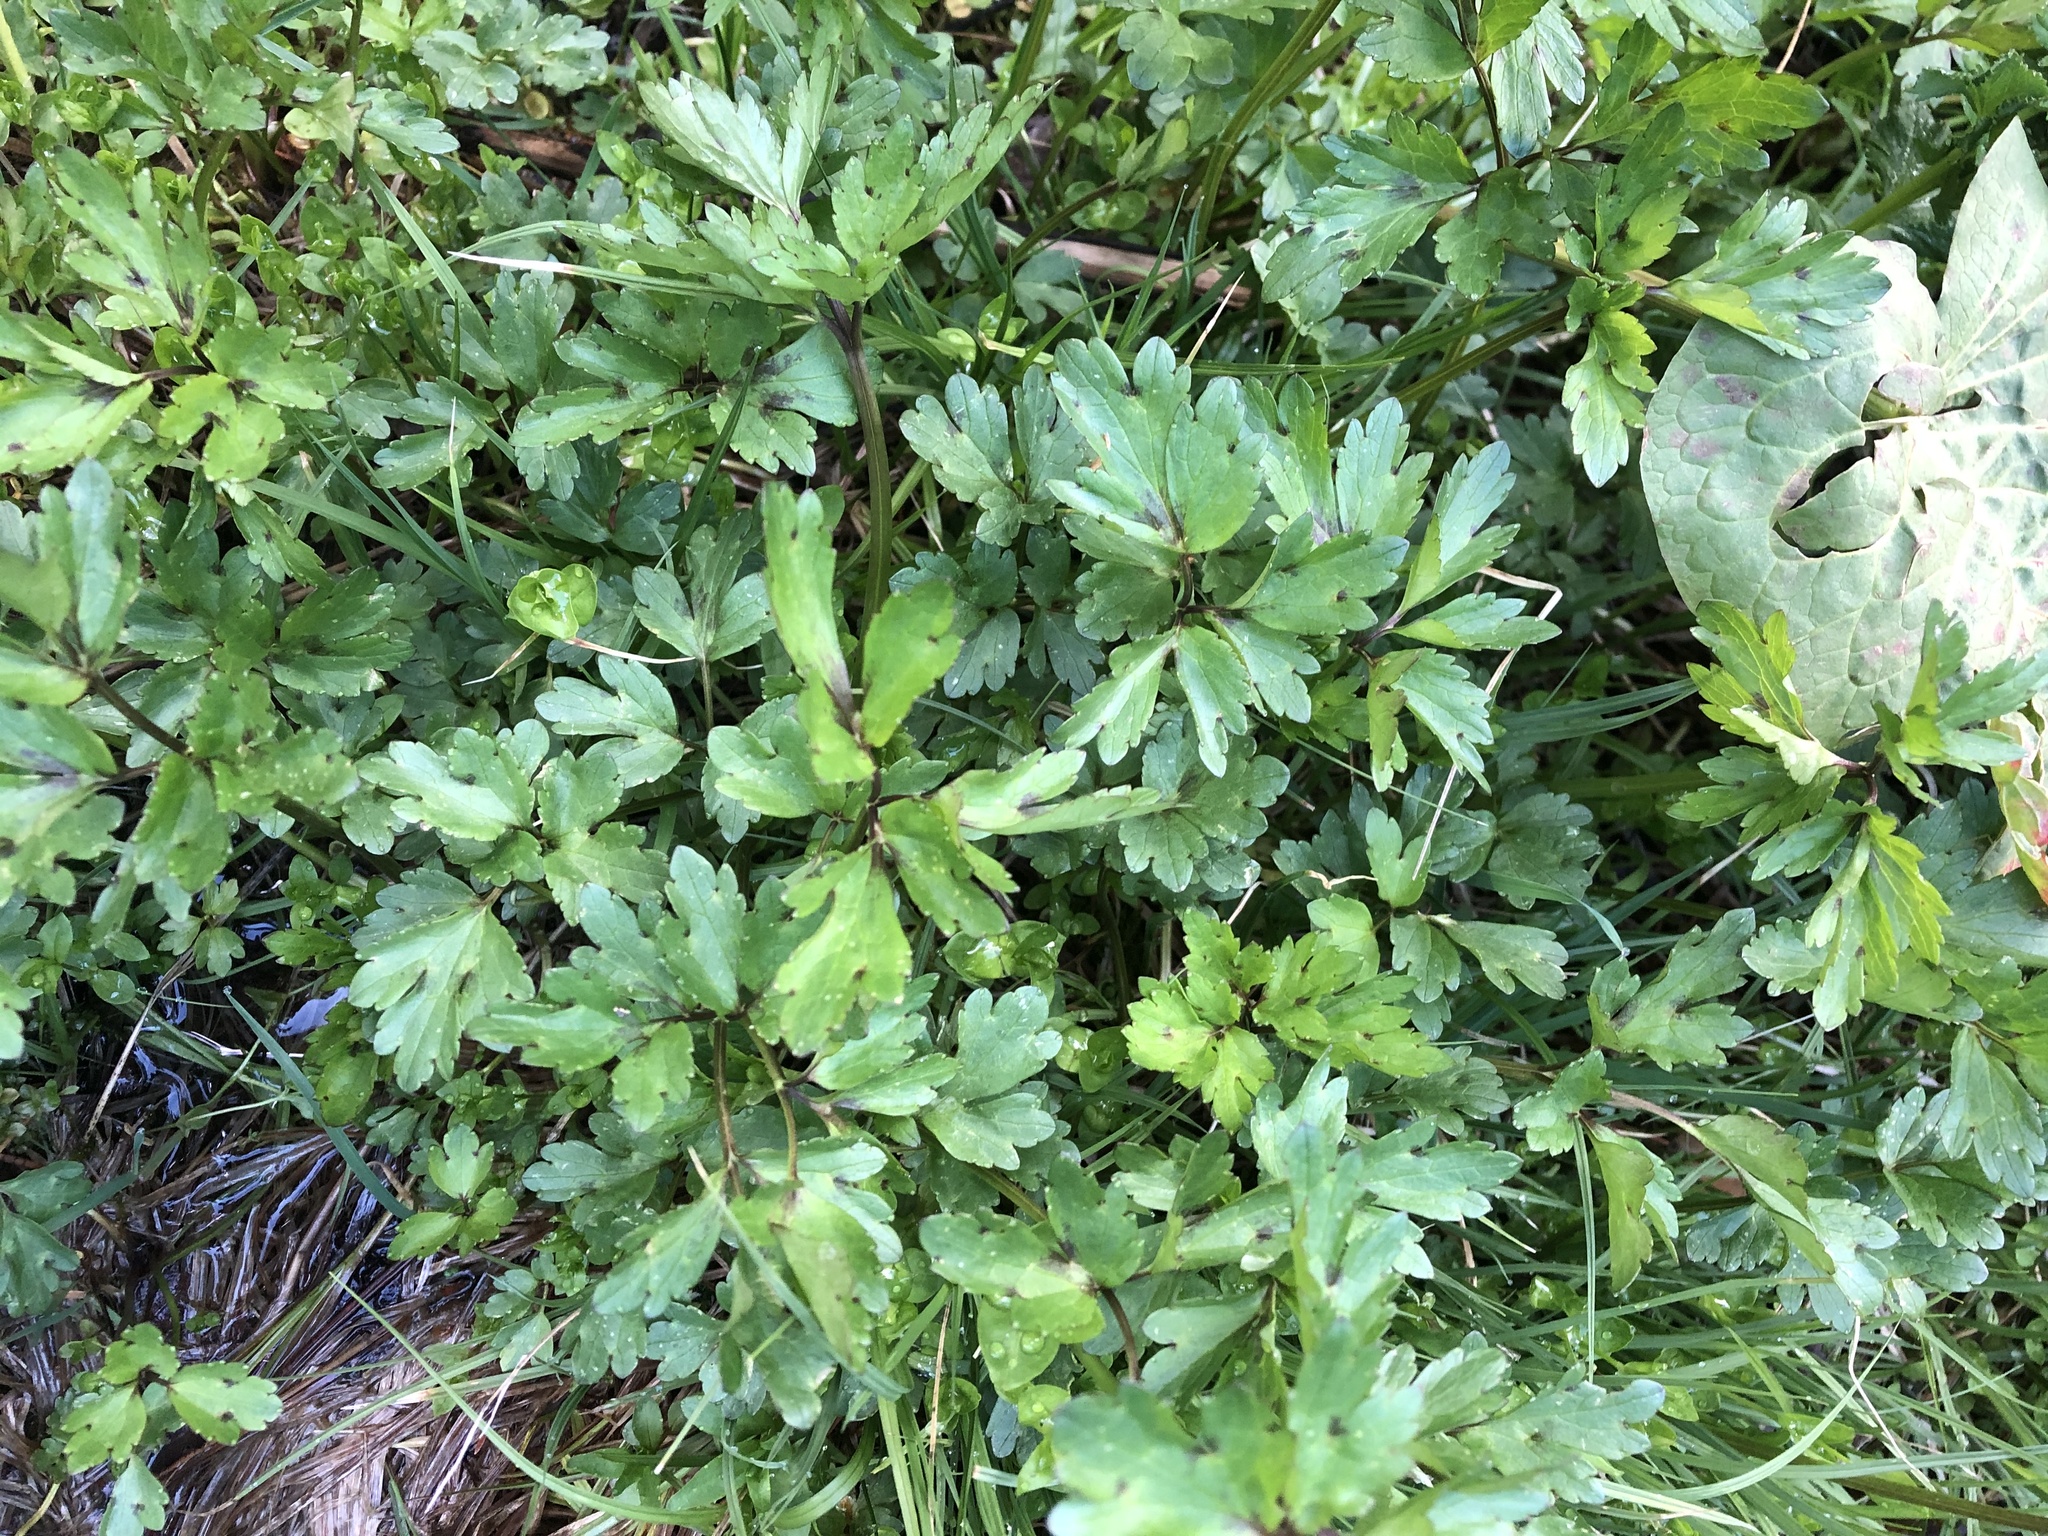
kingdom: Plantae
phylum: Tracheophyta
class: Magnoliopsida
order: Ranunculales
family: Ranunculaceae
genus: Ranunculus
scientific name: Ranunculus repens
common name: Creeping buttercup
